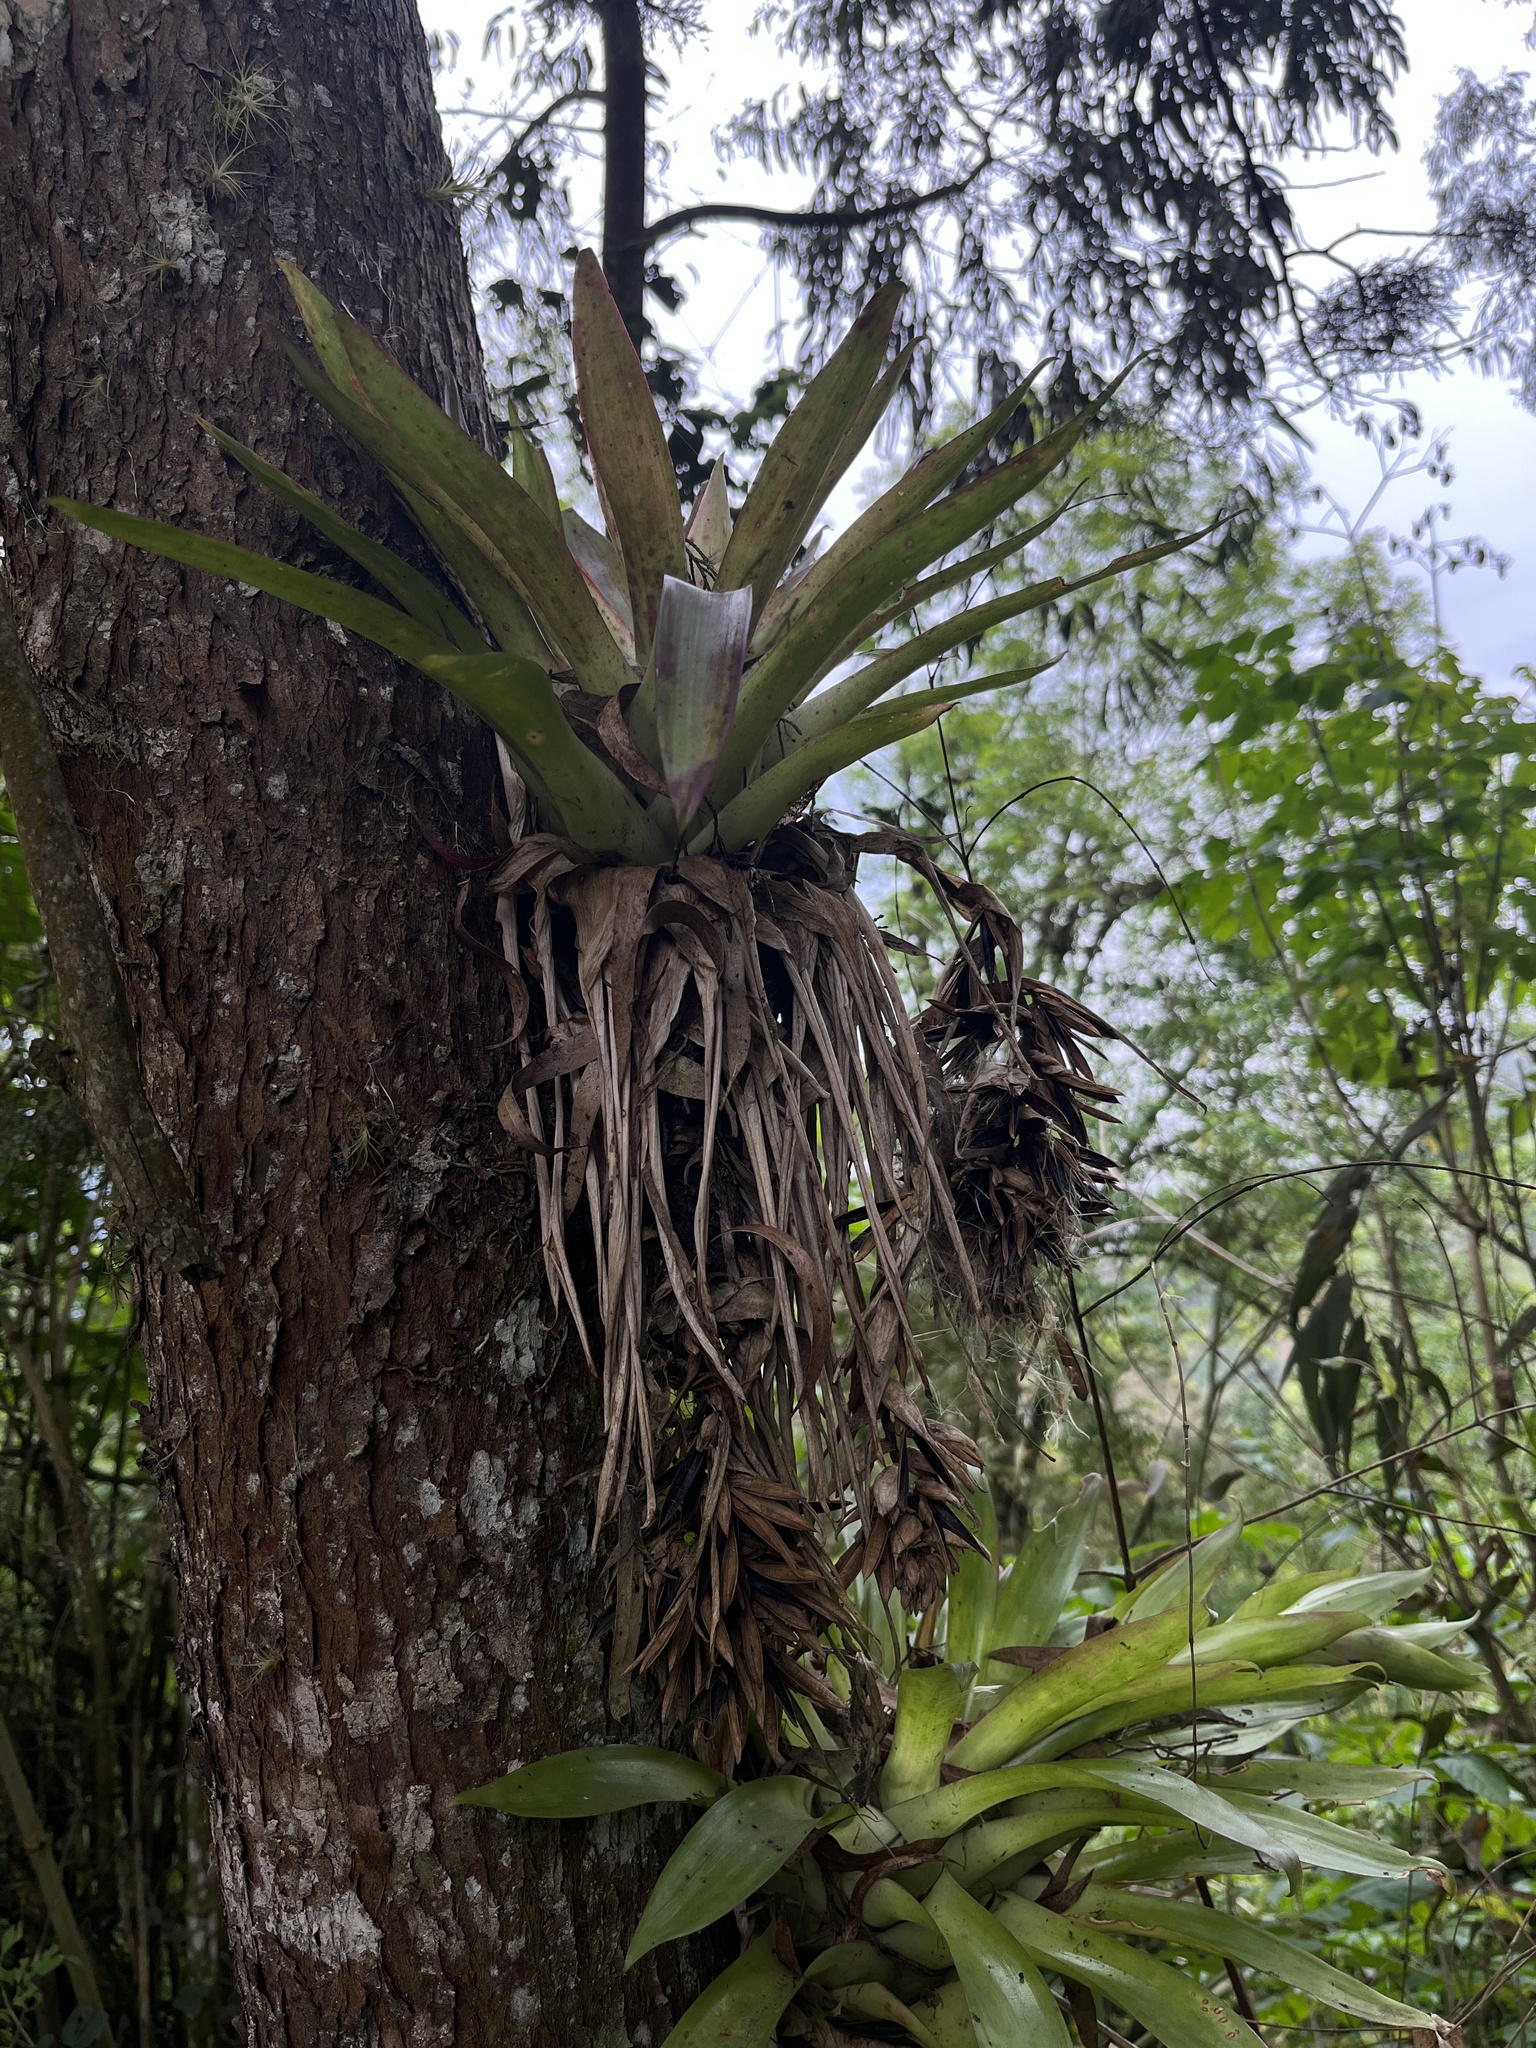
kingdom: Plantae
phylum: Tracheophyta
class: Liliopsida
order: Poales
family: Bromeliaceae
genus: Tillandsia
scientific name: Tillandsia biflora
